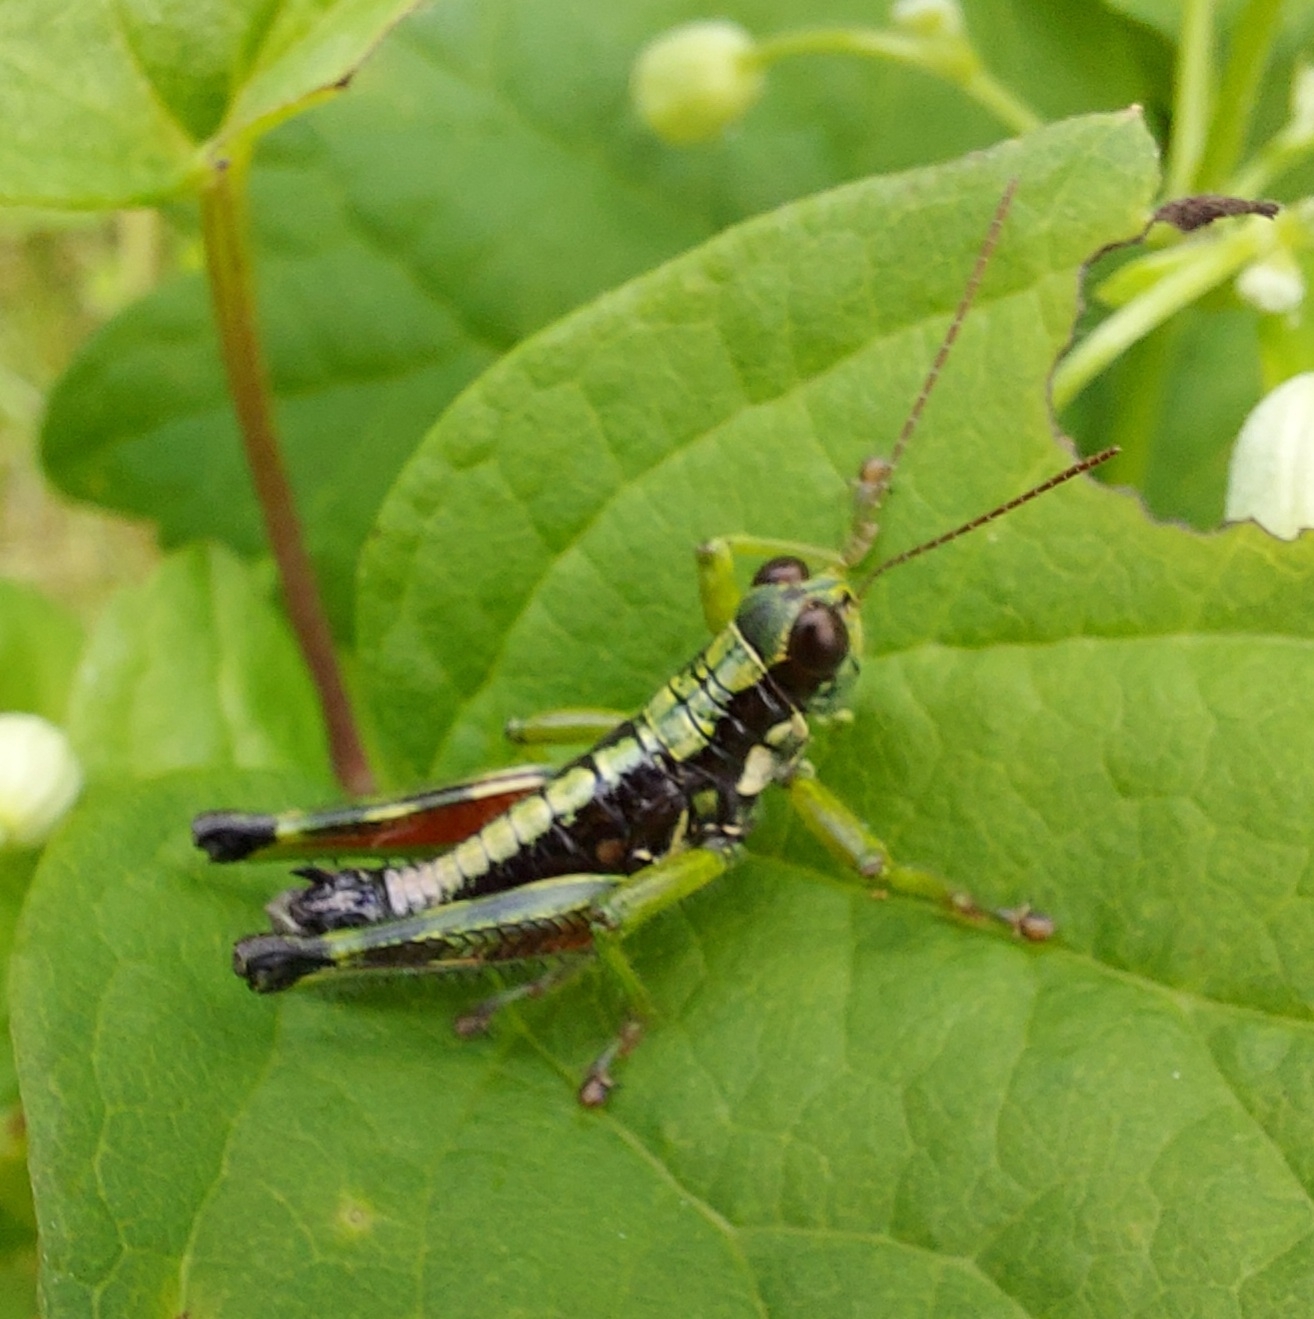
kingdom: Animalia
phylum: Arthropoda
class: Insecta
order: Orthoptera
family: Acrididae
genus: Booneacris
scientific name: Booneacris glacialis
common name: Wingless mountain grasshopper
